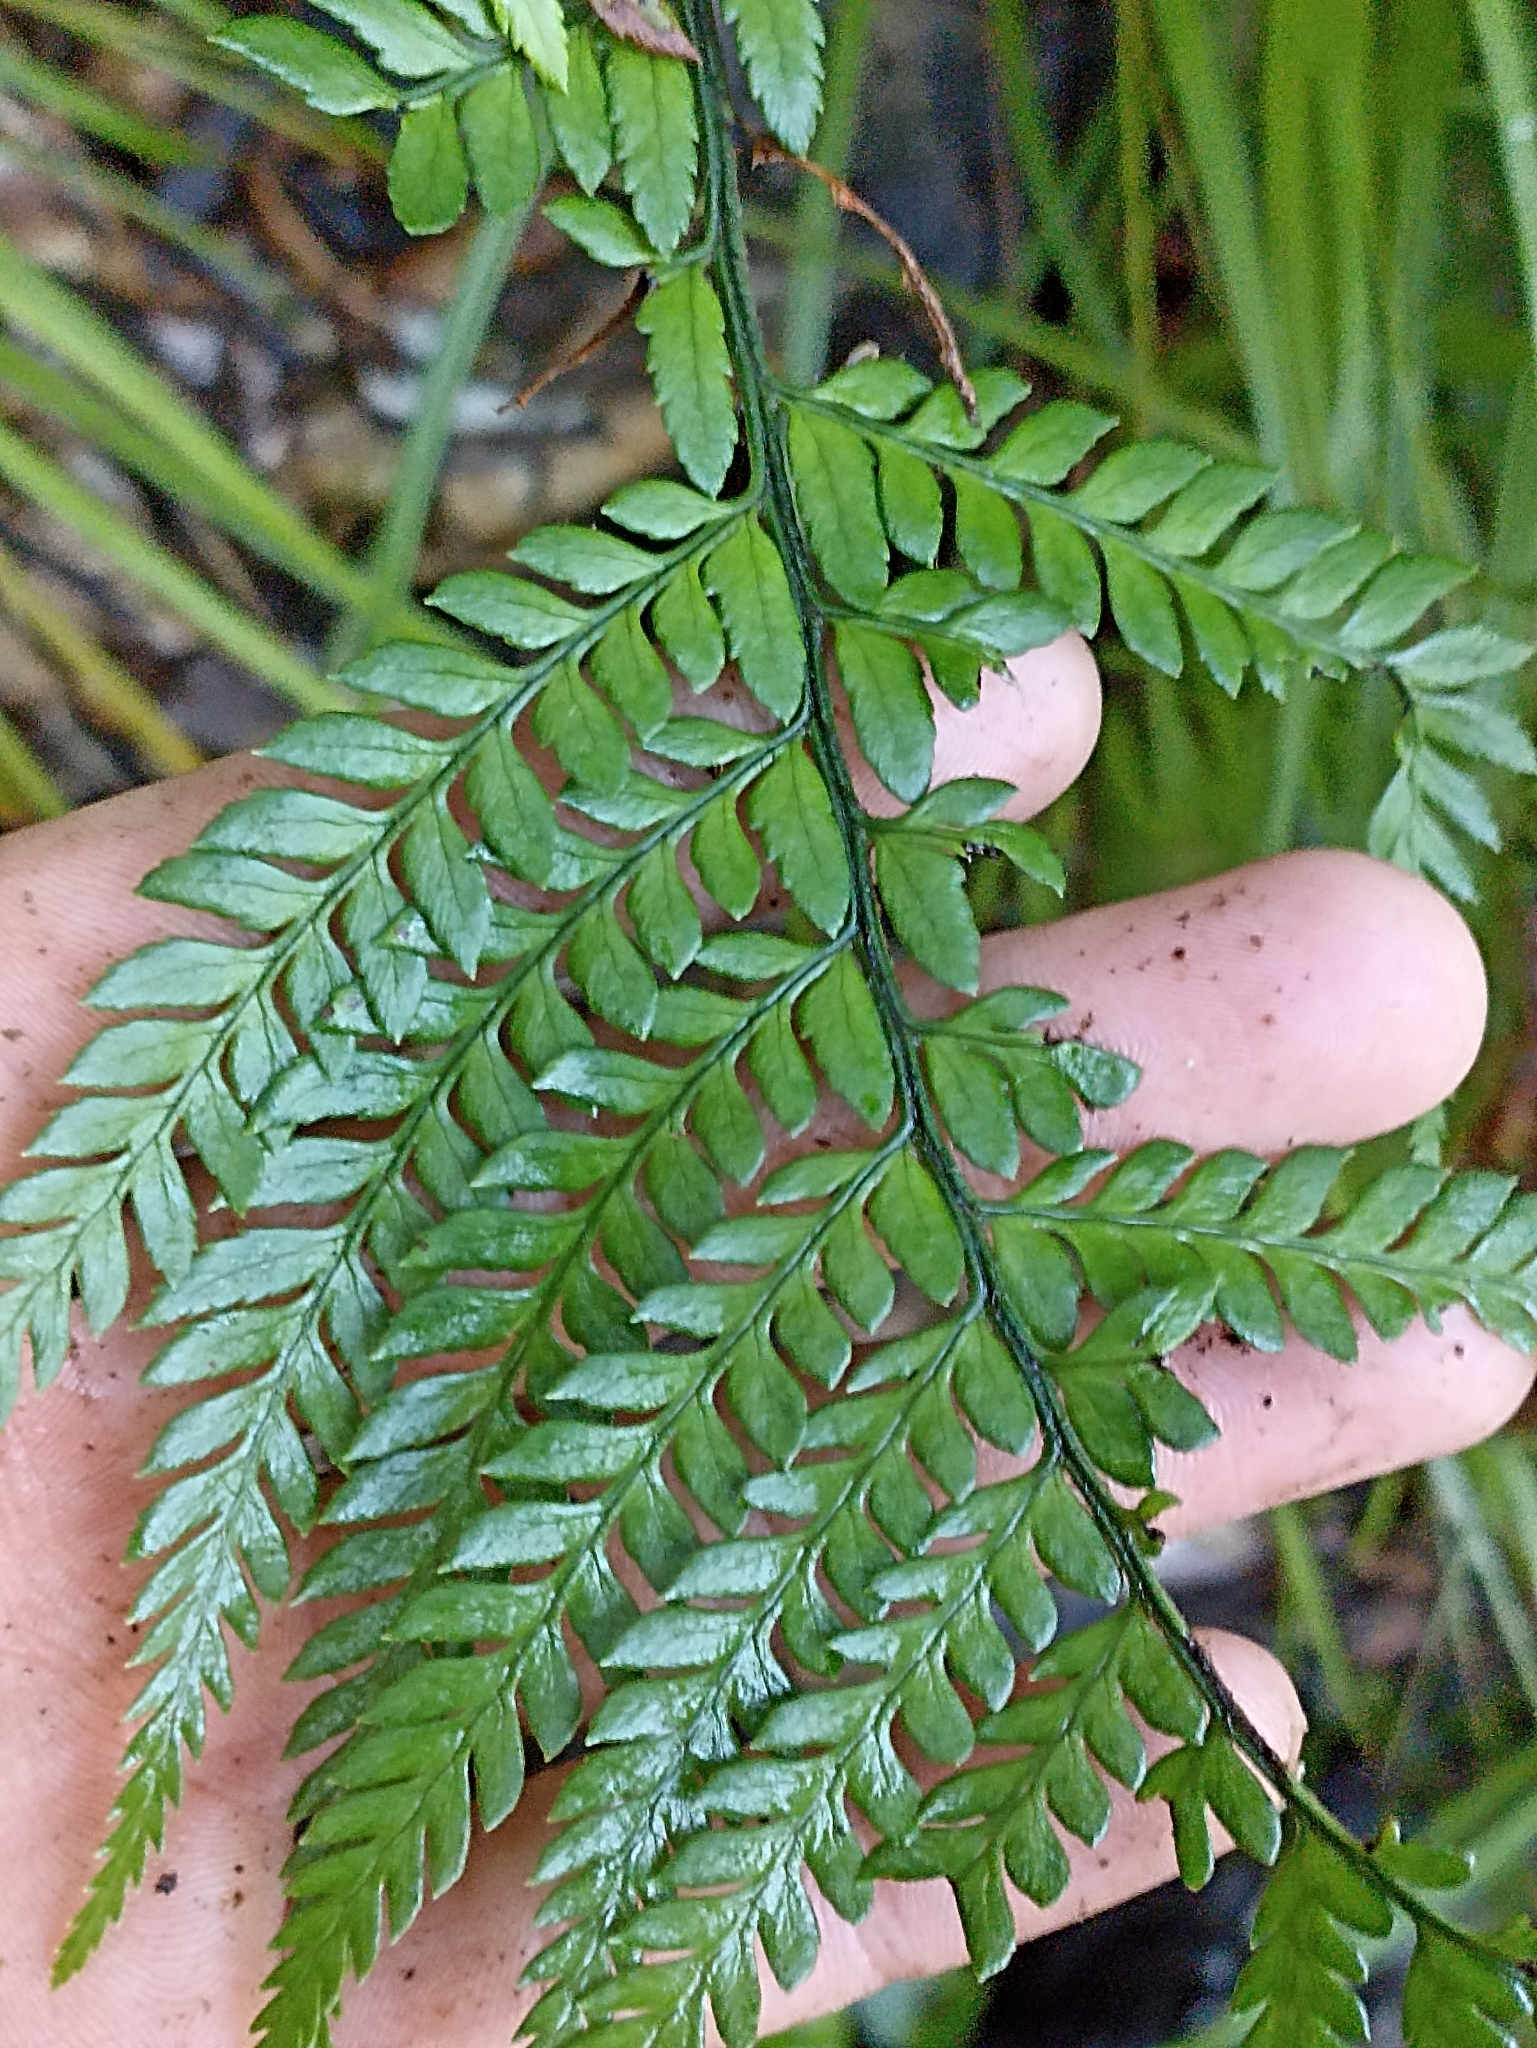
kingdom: Plantae
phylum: Tracheophyta
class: Polypodiopsida
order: Polypodiales
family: Dryopteridaceae
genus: Polystichum
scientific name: Polystichum wawranum
